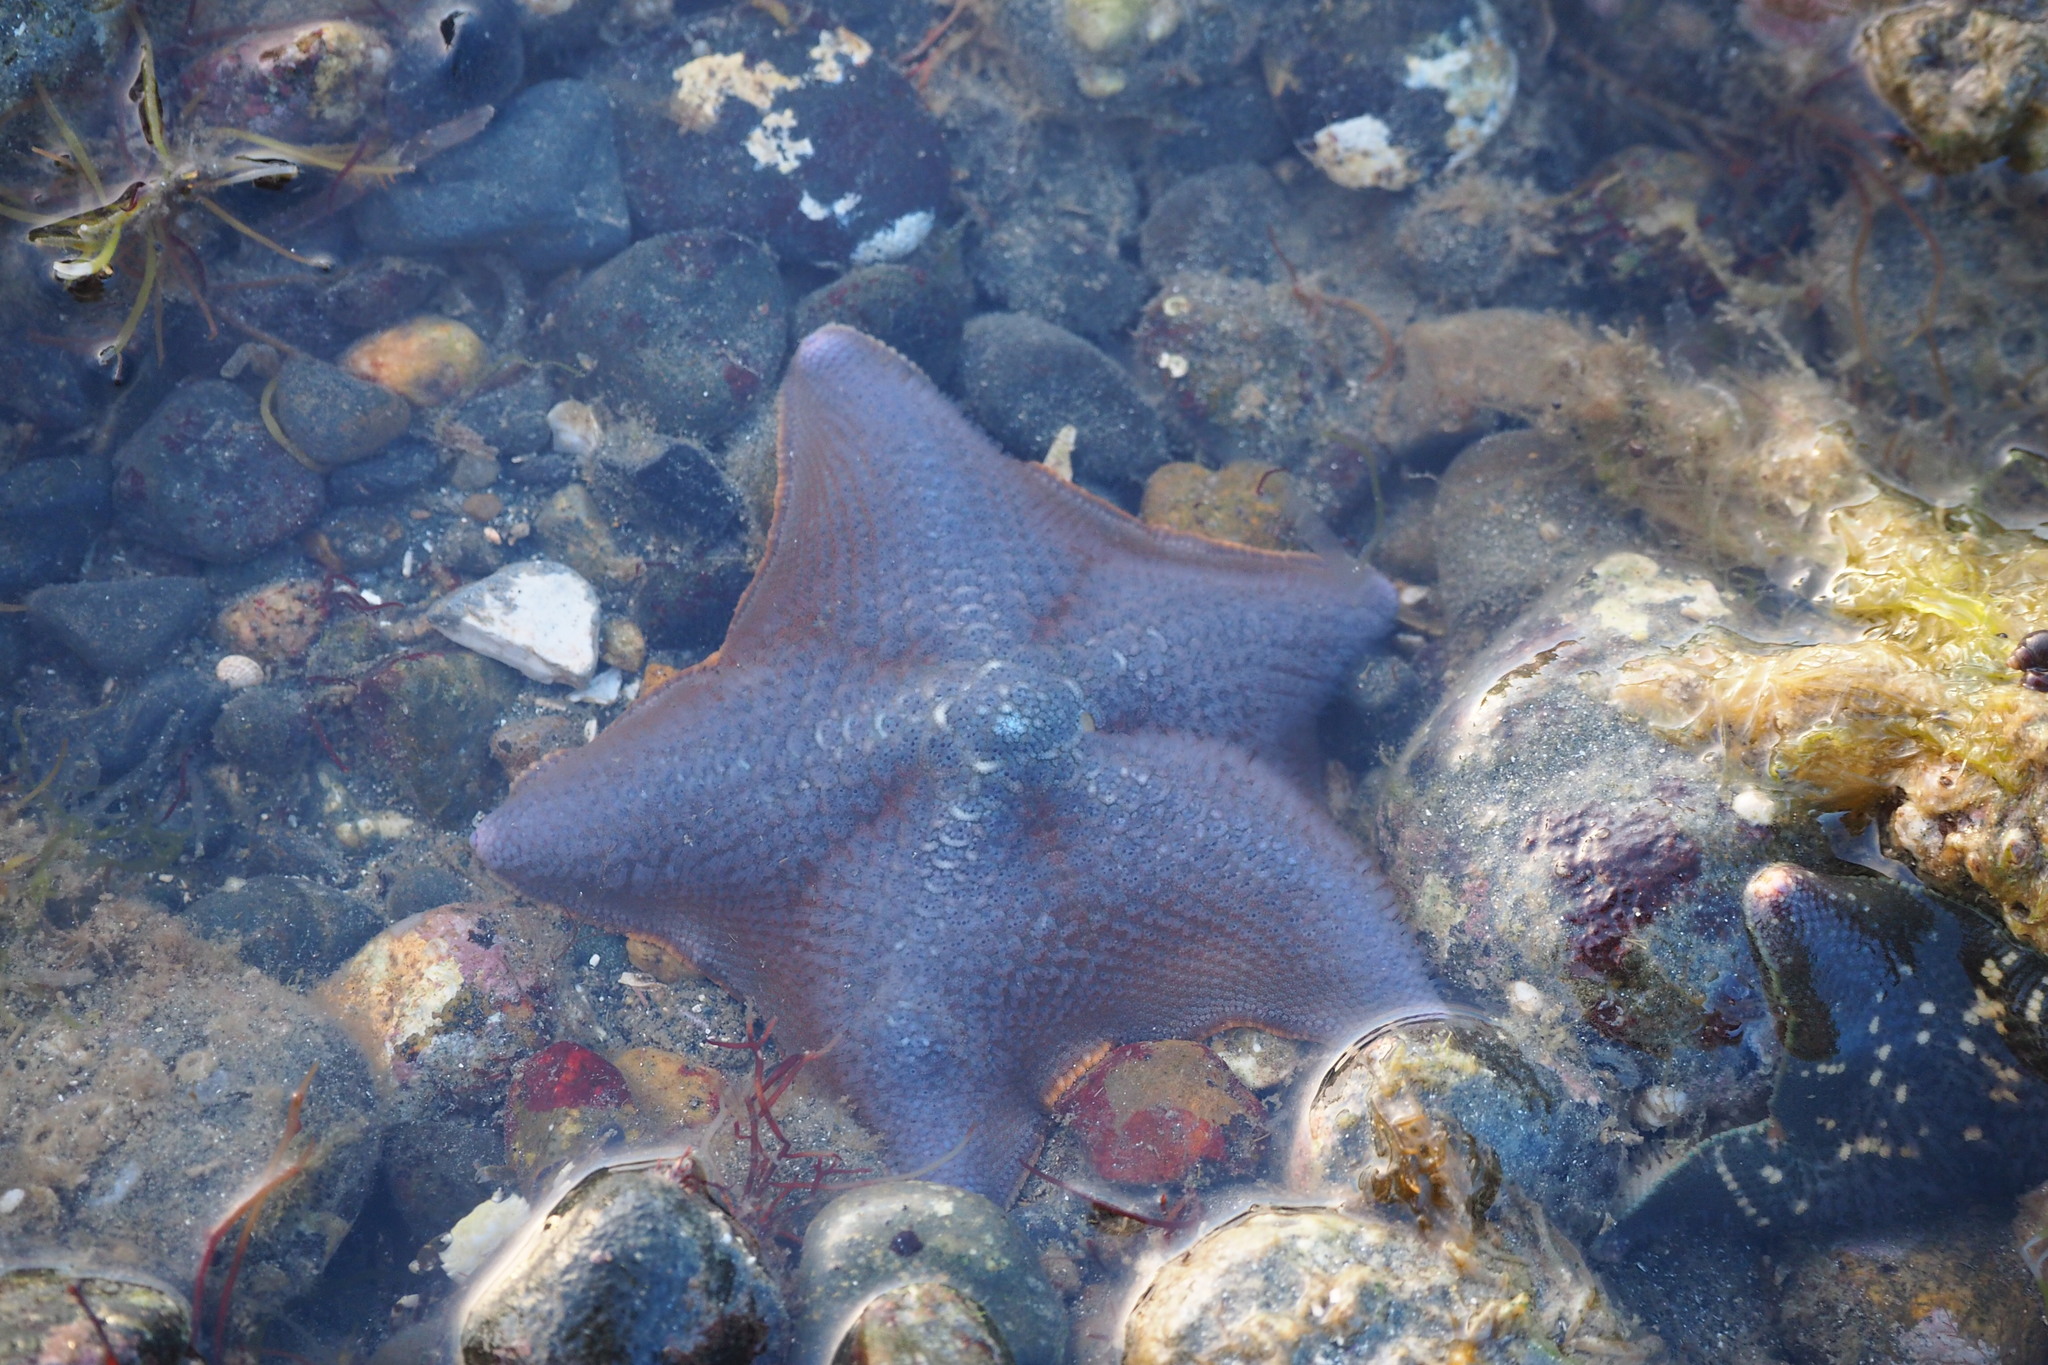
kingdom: Animalia
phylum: Echinodermata
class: Asteroidea
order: Valvatida
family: Asterinidae
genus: Patiria
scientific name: Patiria miniata
